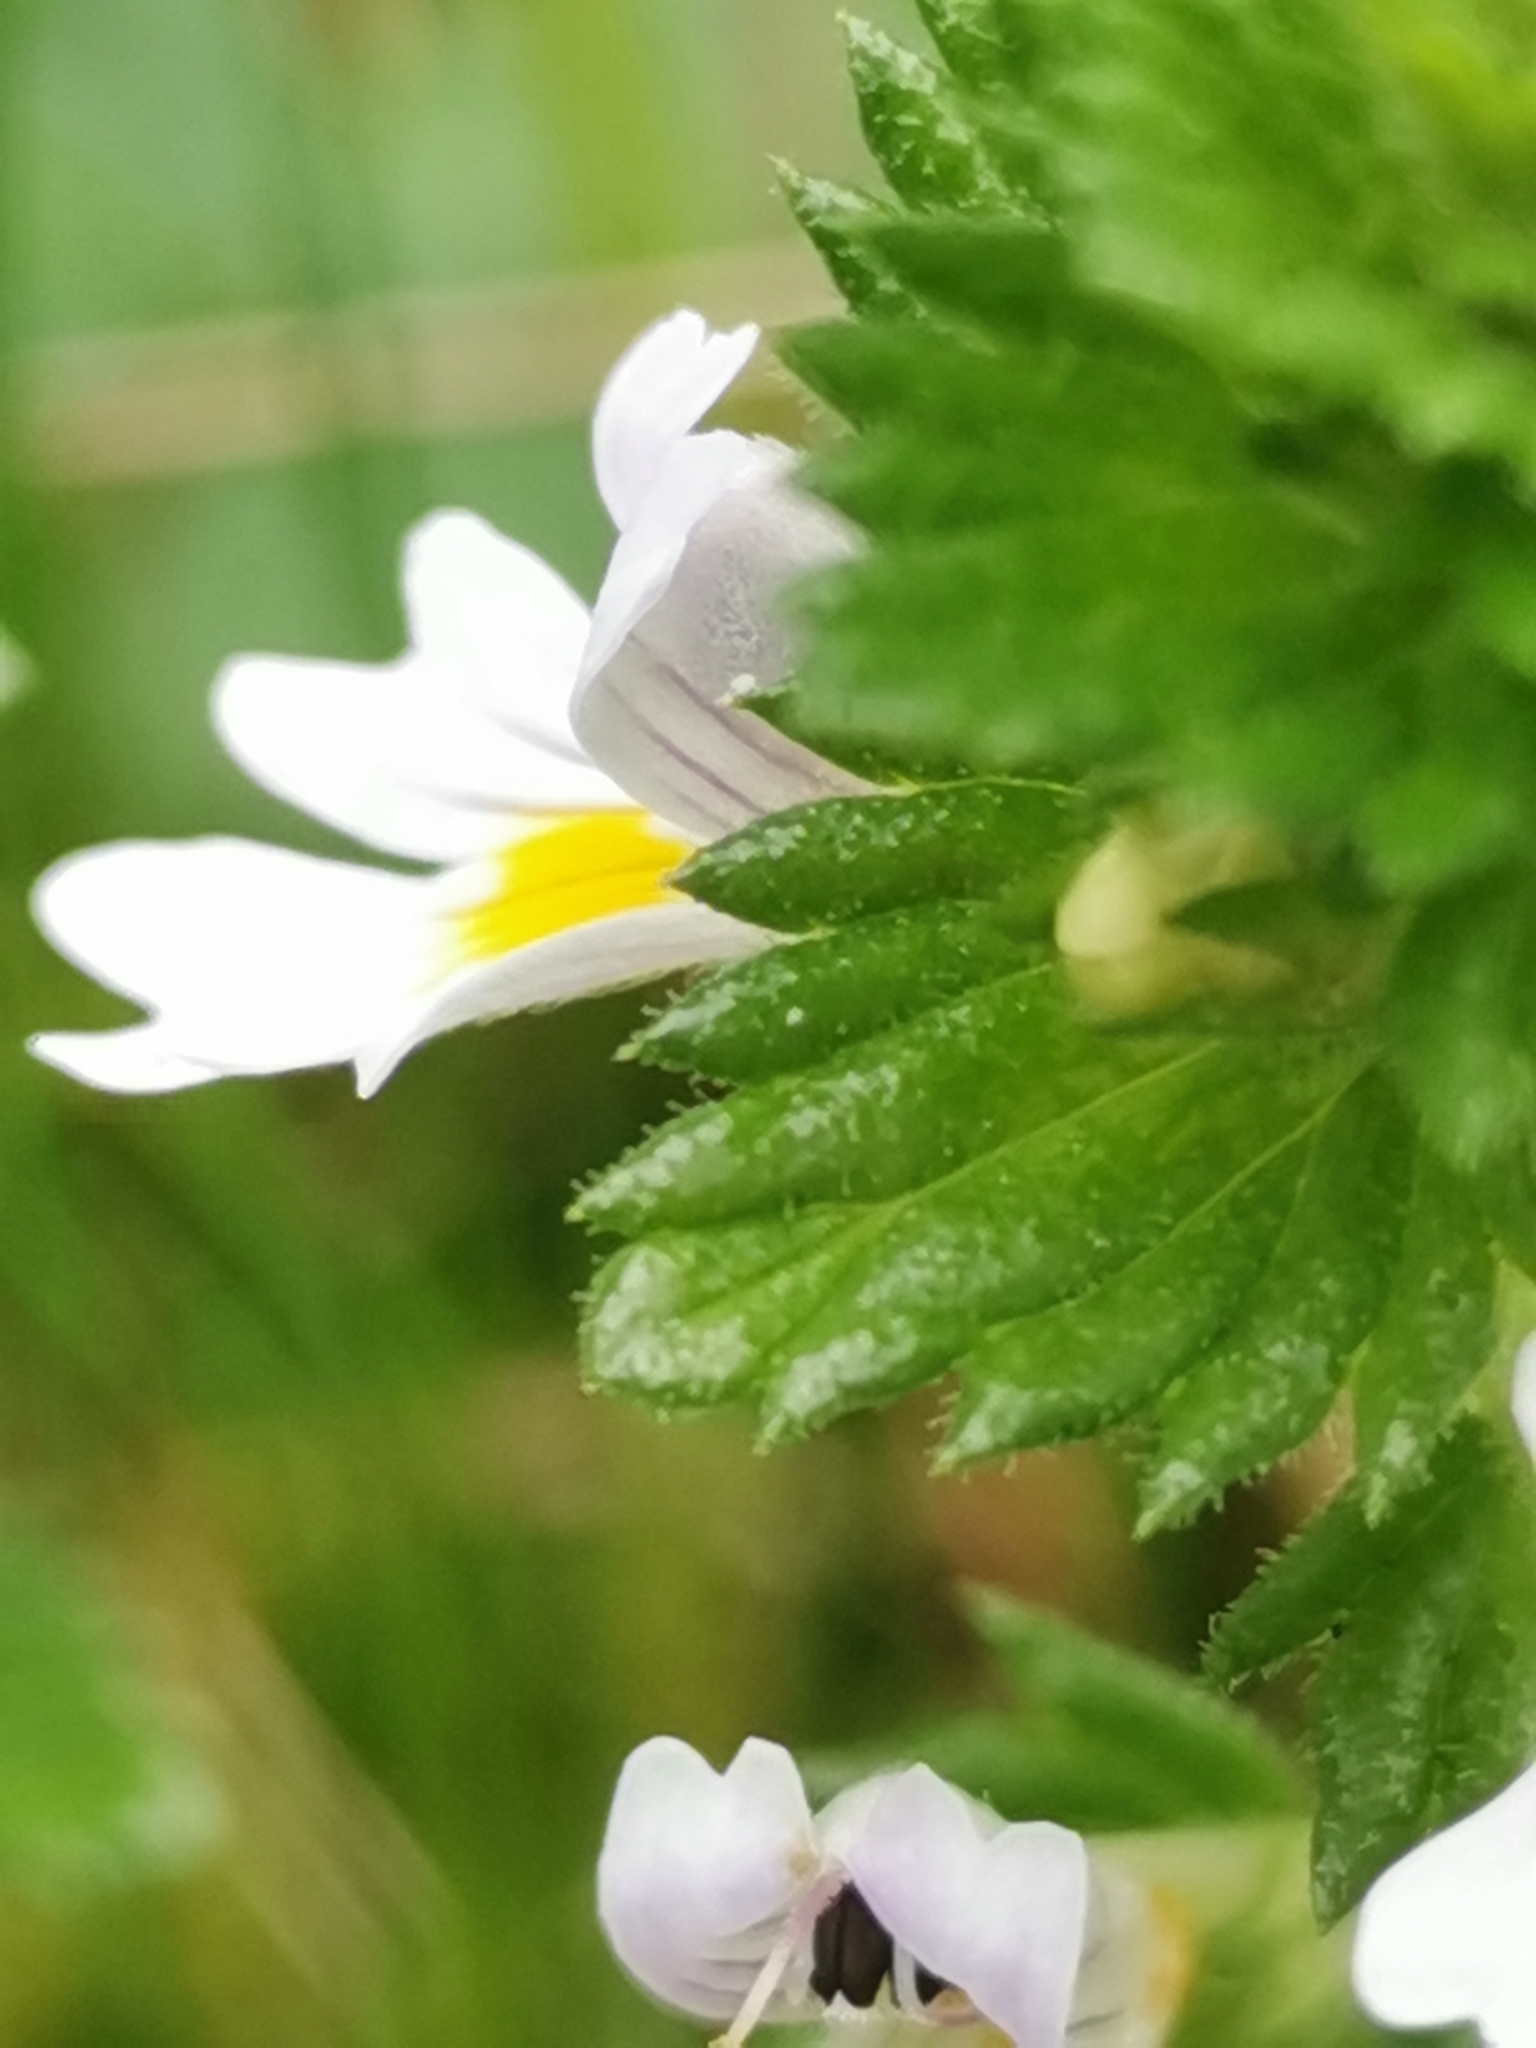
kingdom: Plantae
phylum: Tracheophyta
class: Magnoliopsida
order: Lamiales
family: Orobanchaceae
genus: Euphrasia
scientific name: Euphrasia officinalis
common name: Eyebright
